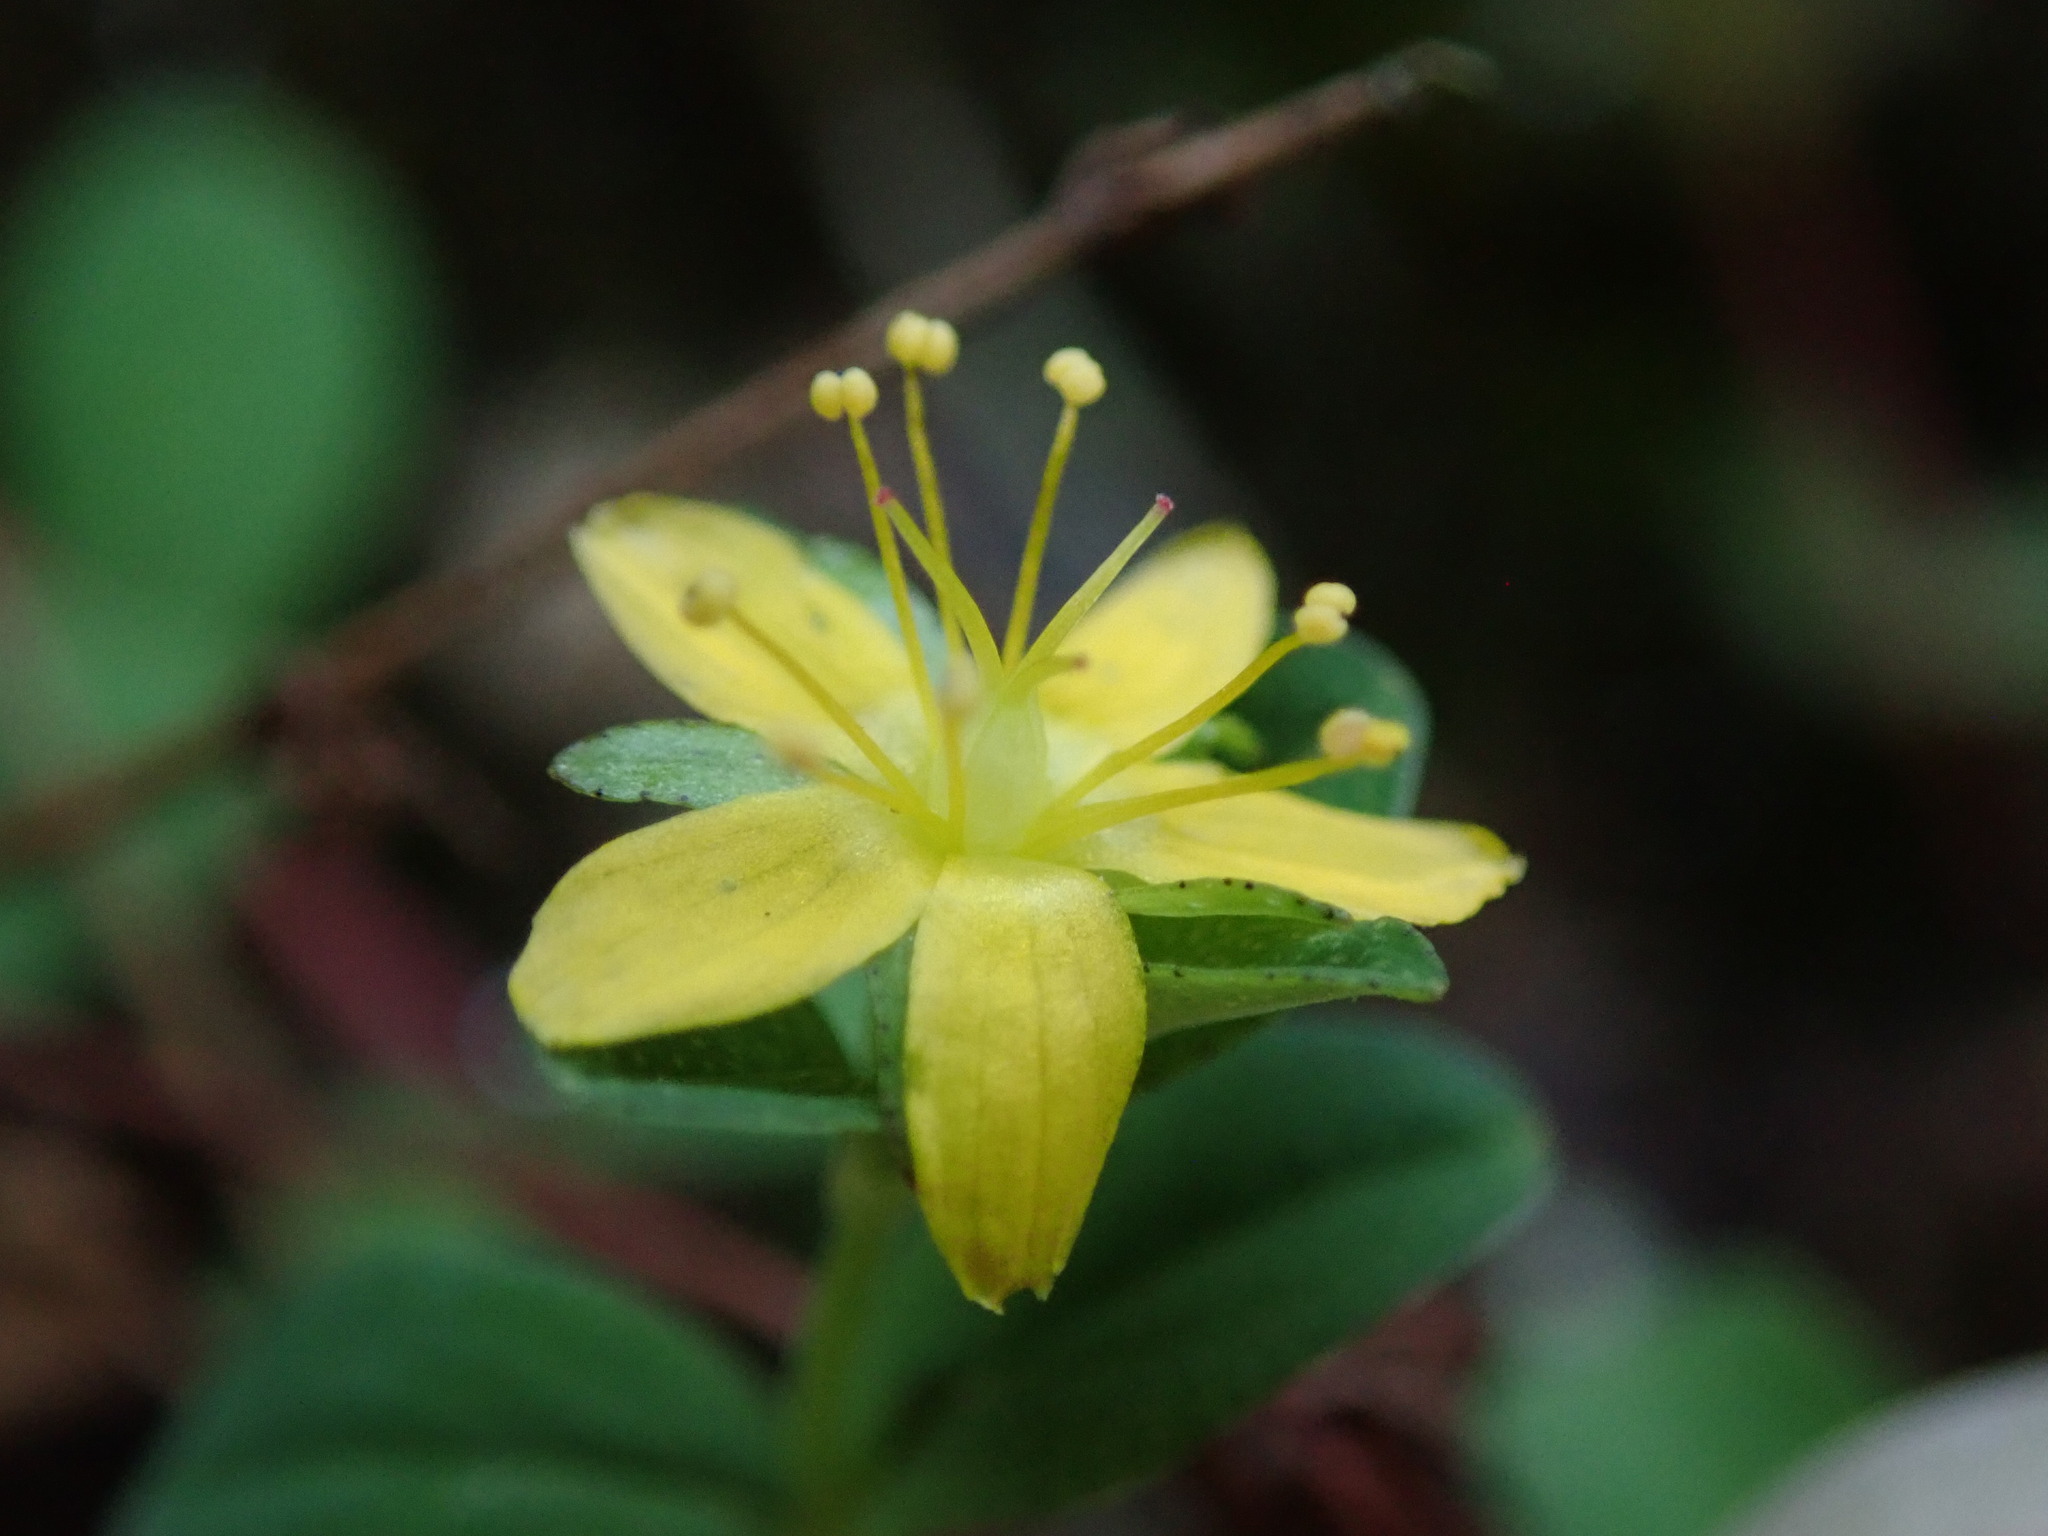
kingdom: Plantae
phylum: Tracheophyta
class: Magnoliopsida
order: Malpighiales
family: Hypericaceae
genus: Hypericum
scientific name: Hypericum humifusum
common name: Trailing st. john's-wort
